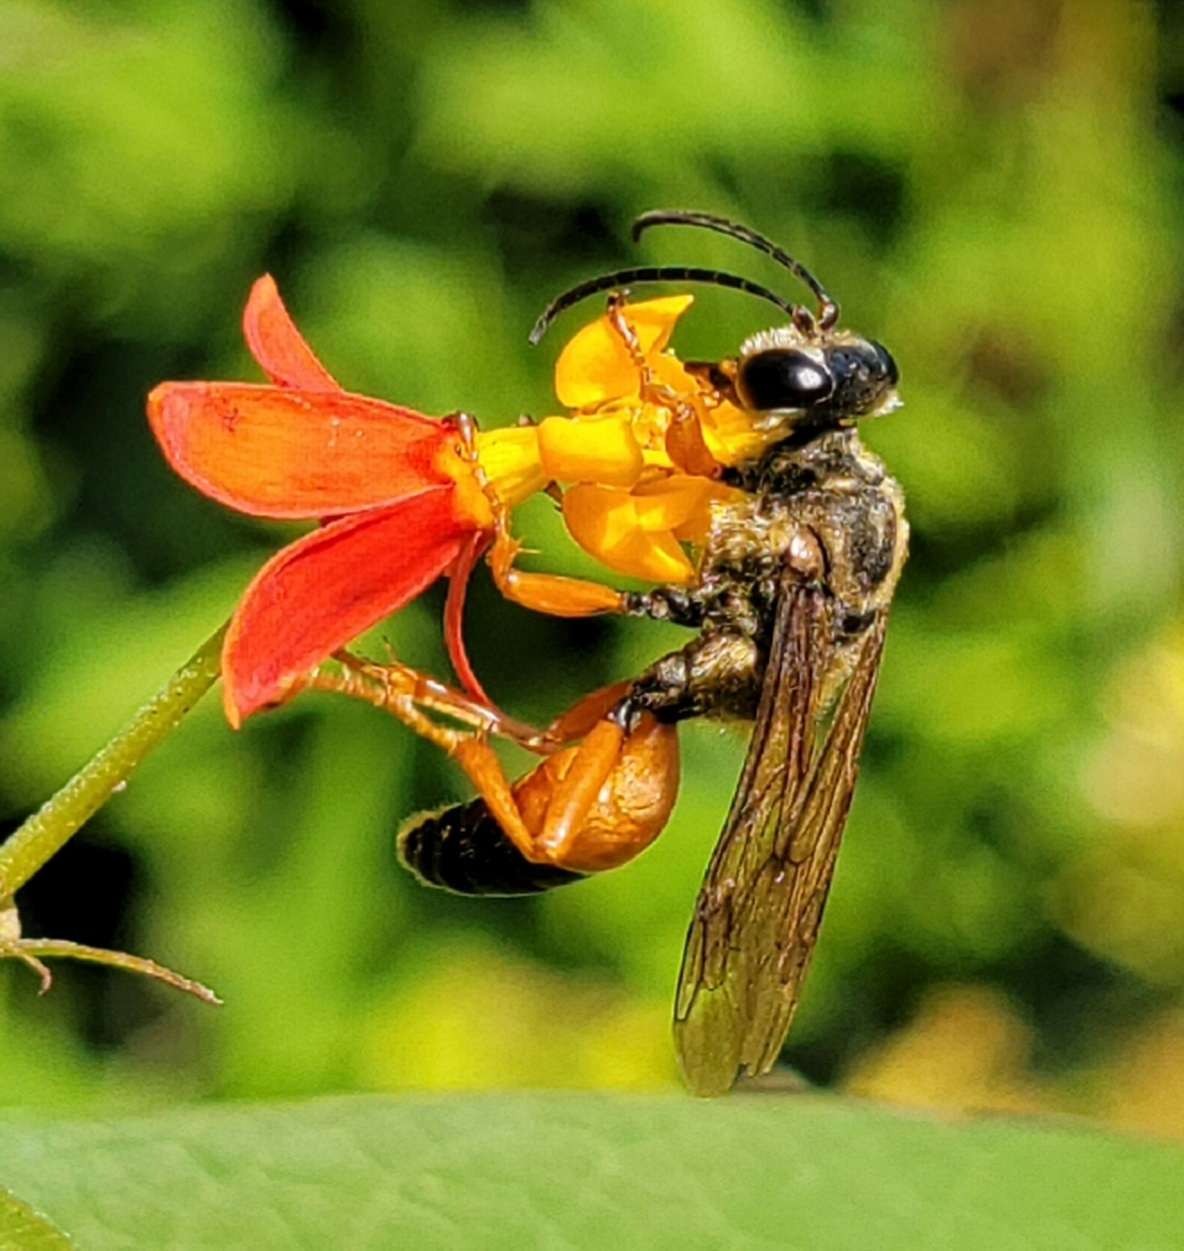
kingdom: Animalia
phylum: Arthropoda
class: Insecta
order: Hymenoptera
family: Sphecidae
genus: Sphex
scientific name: Sphex ichneumoneus
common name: Great golden digger wasp
